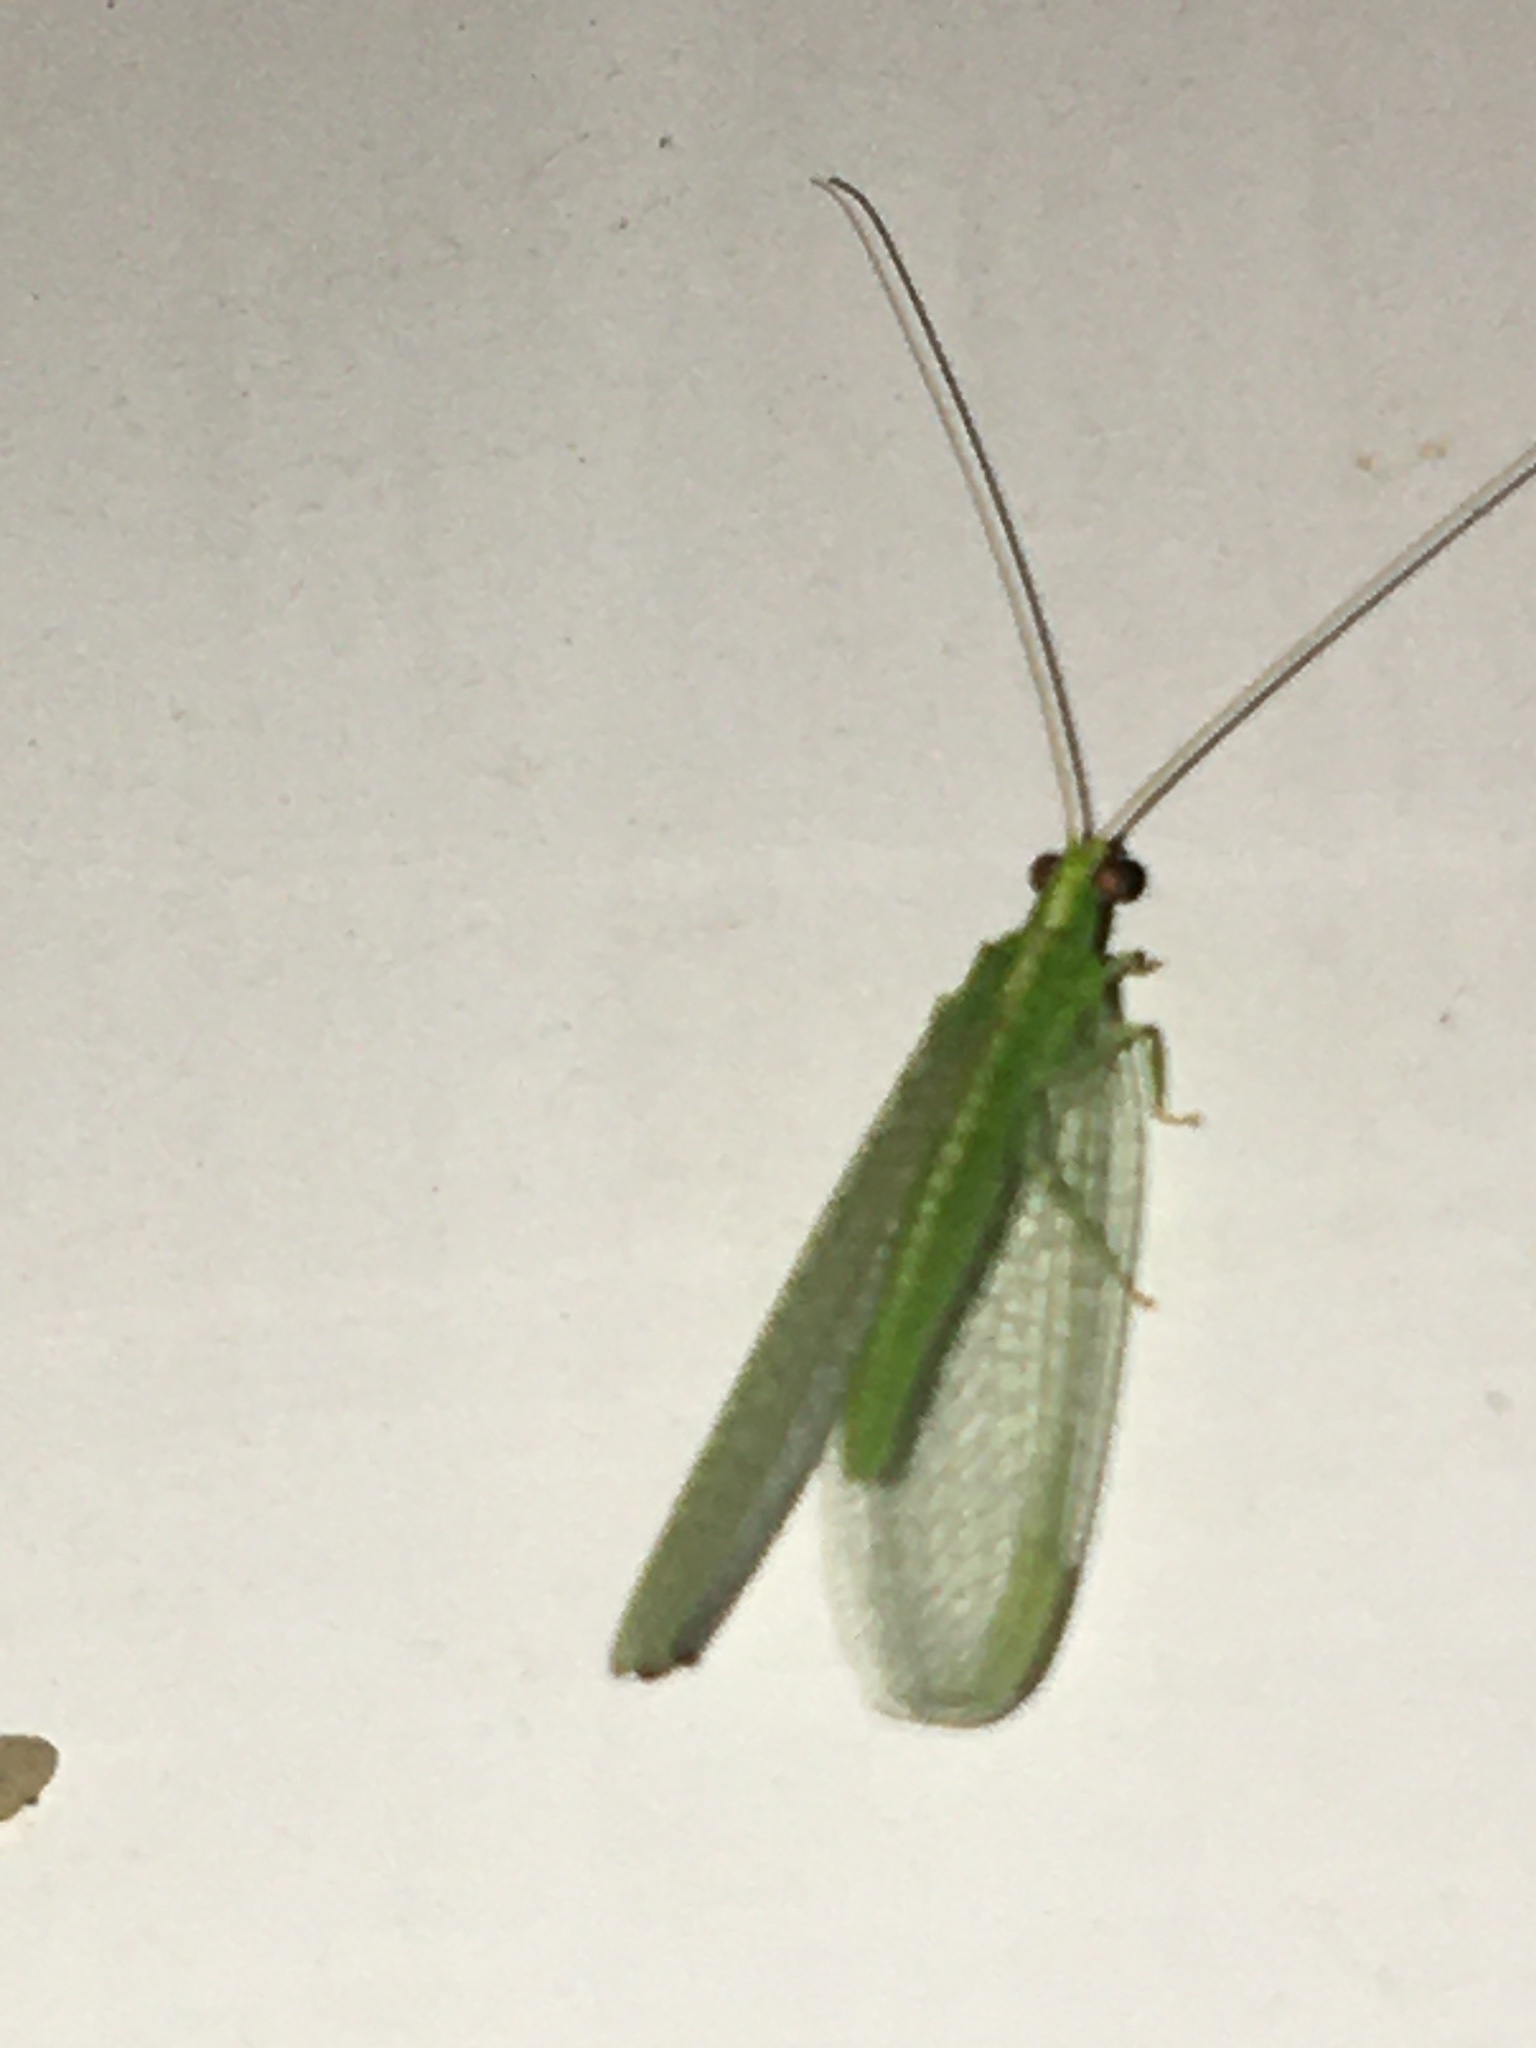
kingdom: Animalia
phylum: Arthropoda
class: Insecta
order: Neuroptera
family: Chrysopidae
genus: Chrysoperla
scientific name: Chrysoperla
